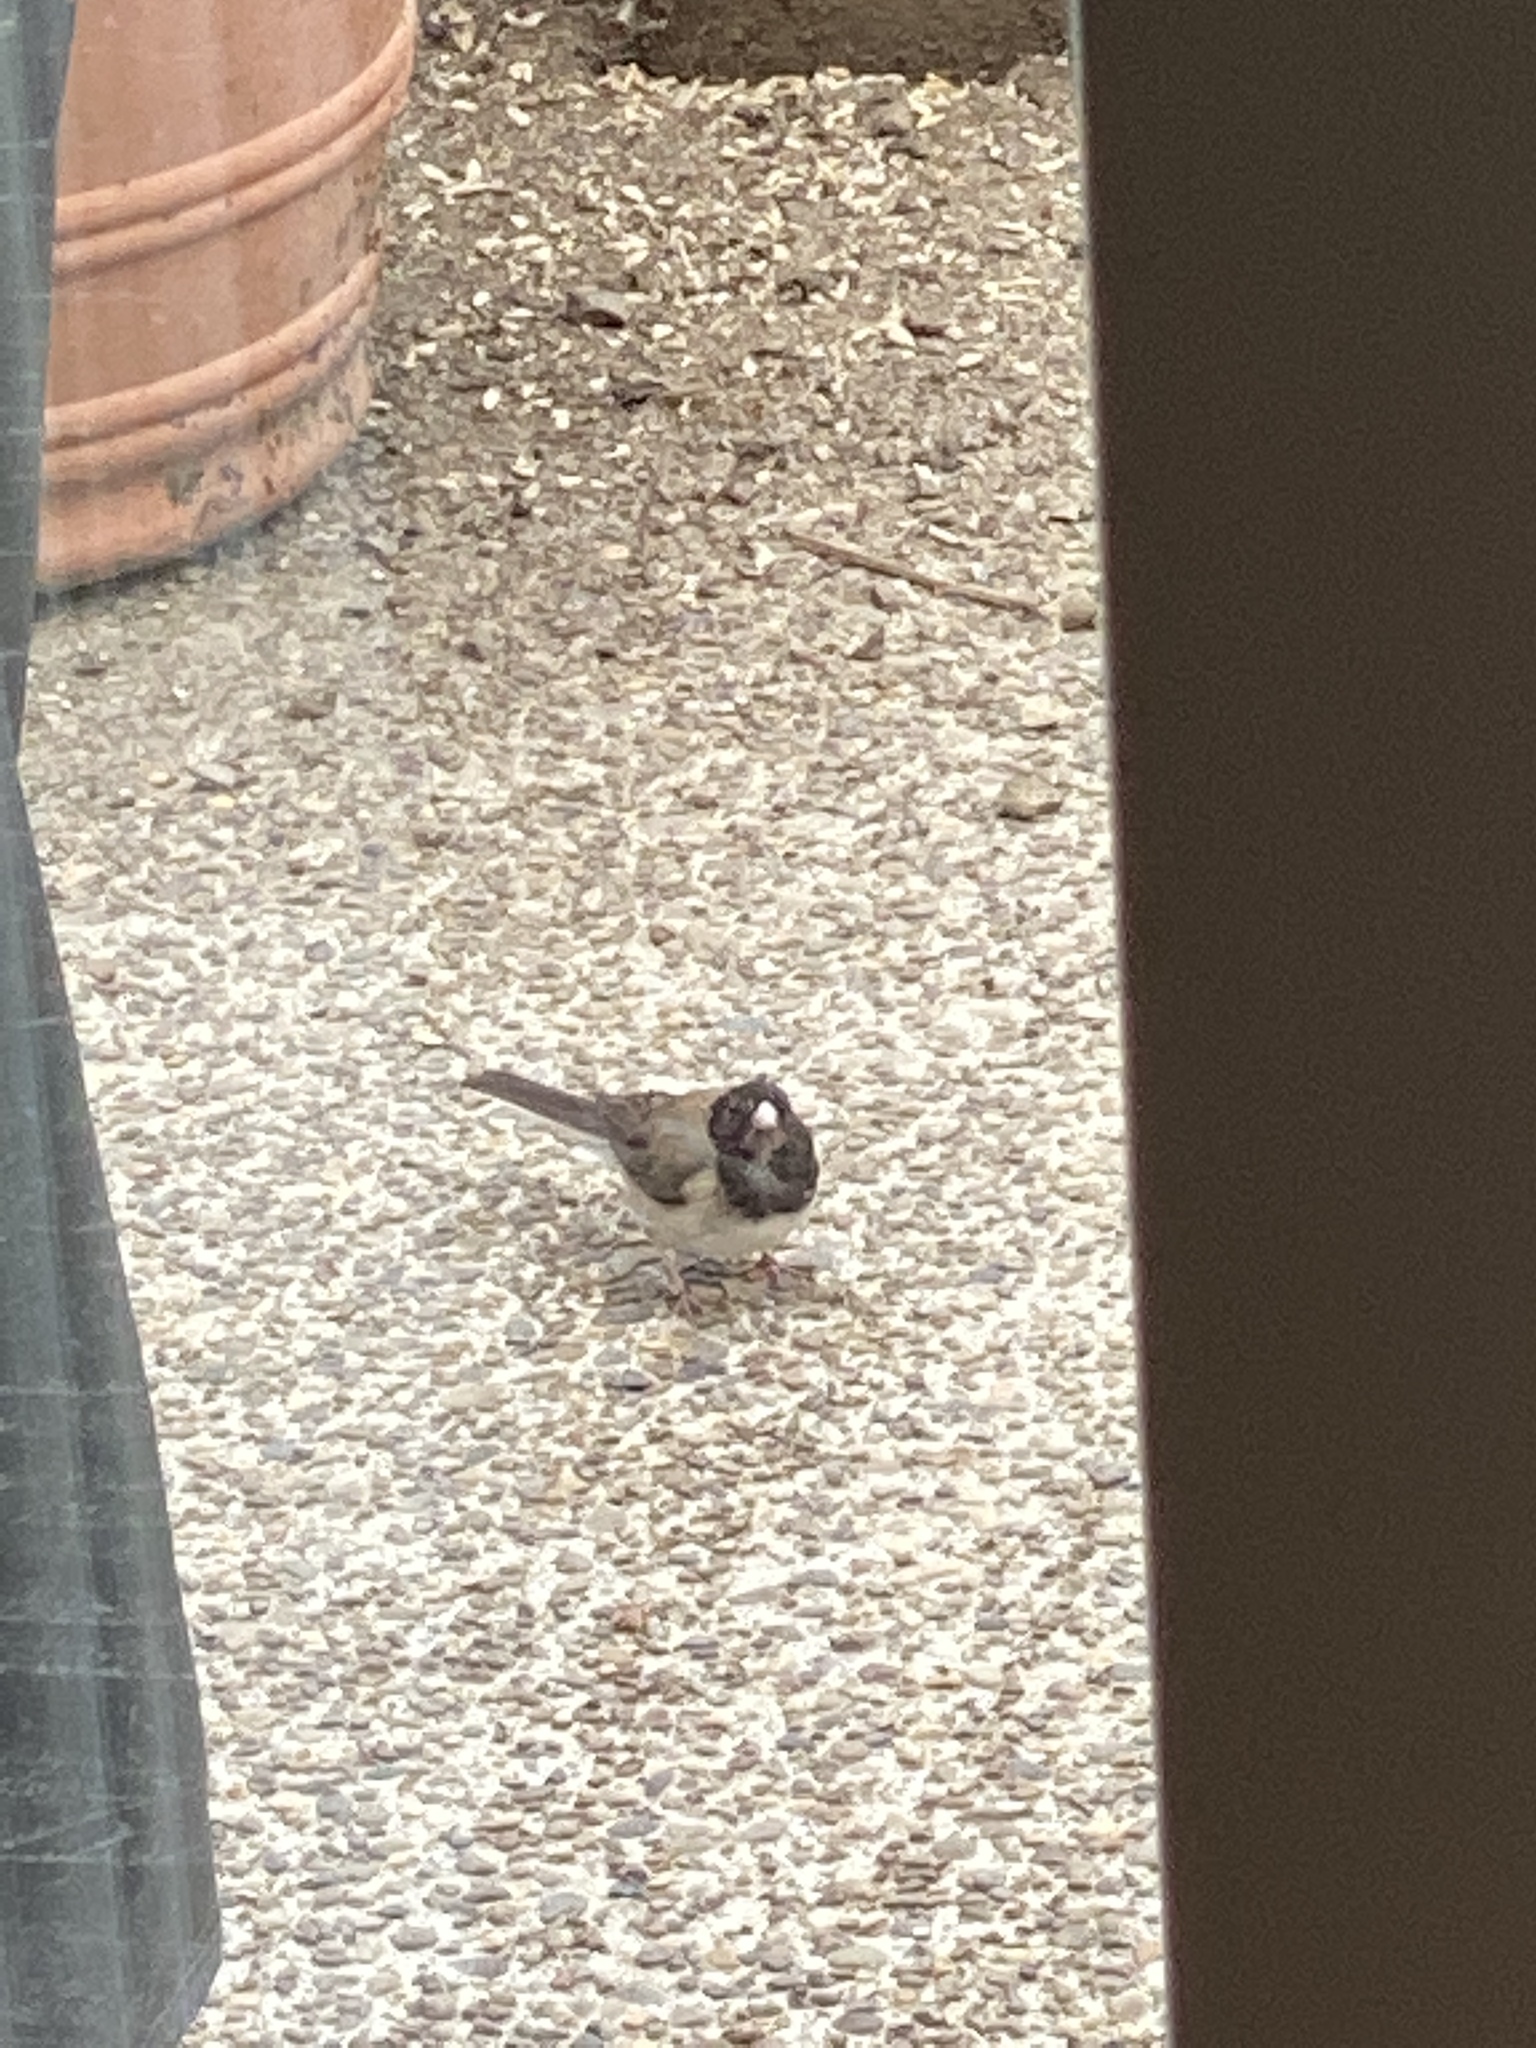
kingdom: Animalia
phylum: Chordata
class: Aves
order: Passeriformes
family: Passerellidae
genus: Junco
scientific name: Junco hyemalis
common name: Dark-eyed junco
